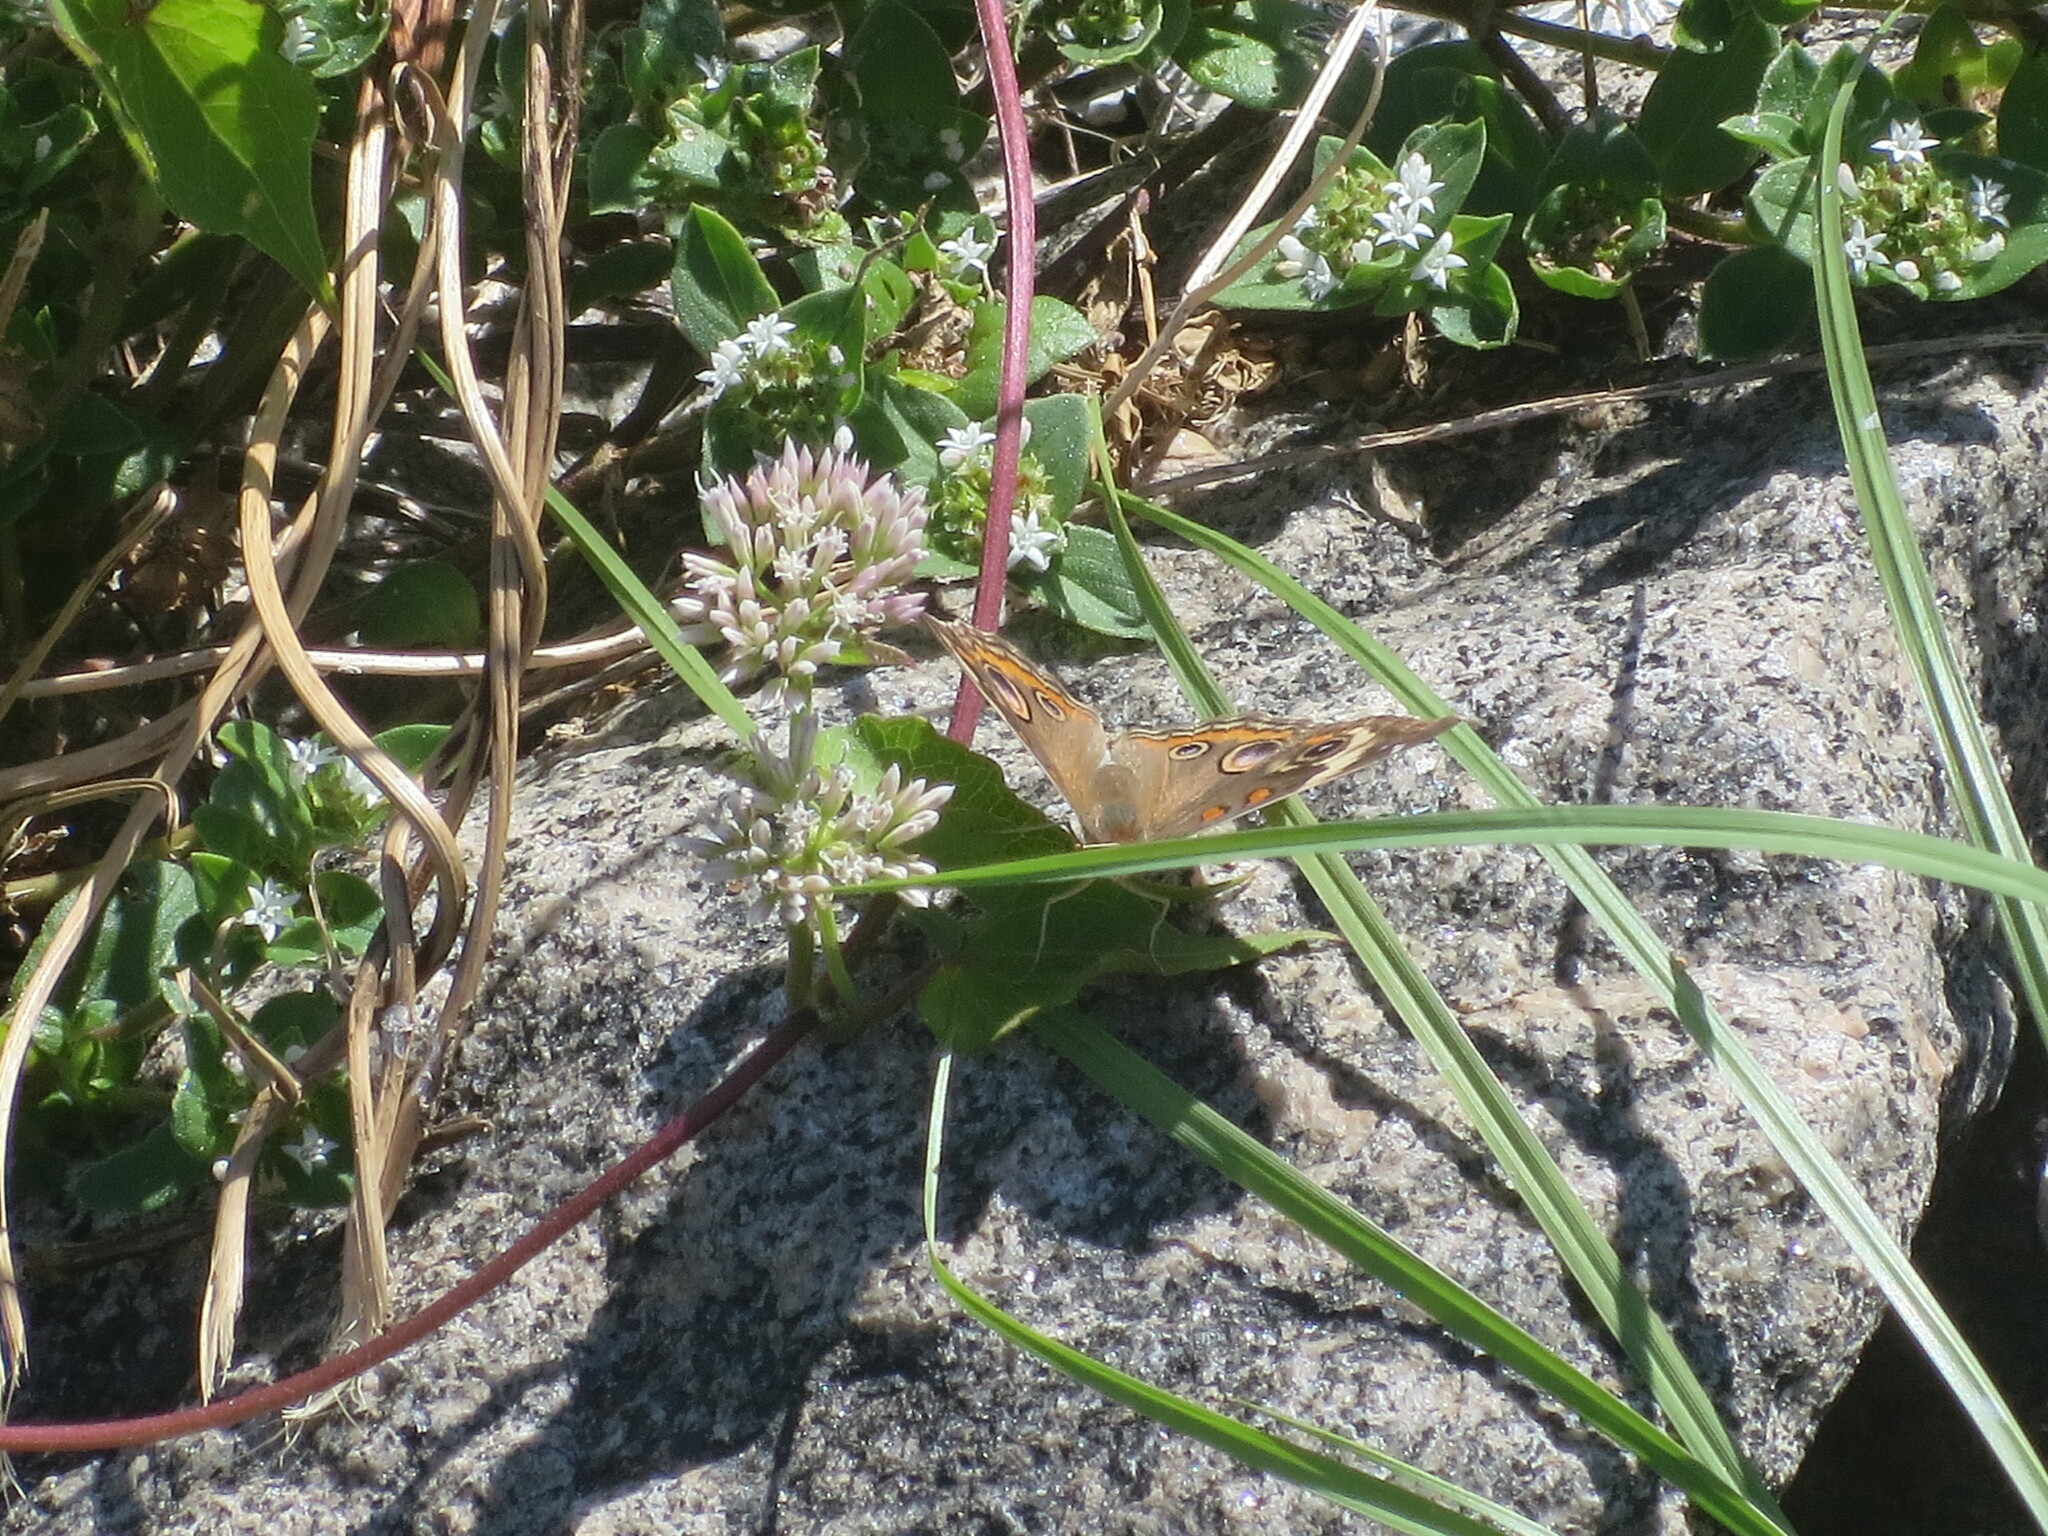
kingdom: Animalia
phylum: Arthropoda
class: Insecta
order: Lepidoptera
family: Nymphalidae
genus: Junonia
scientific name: Junonia coenia
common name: Common buckeye
